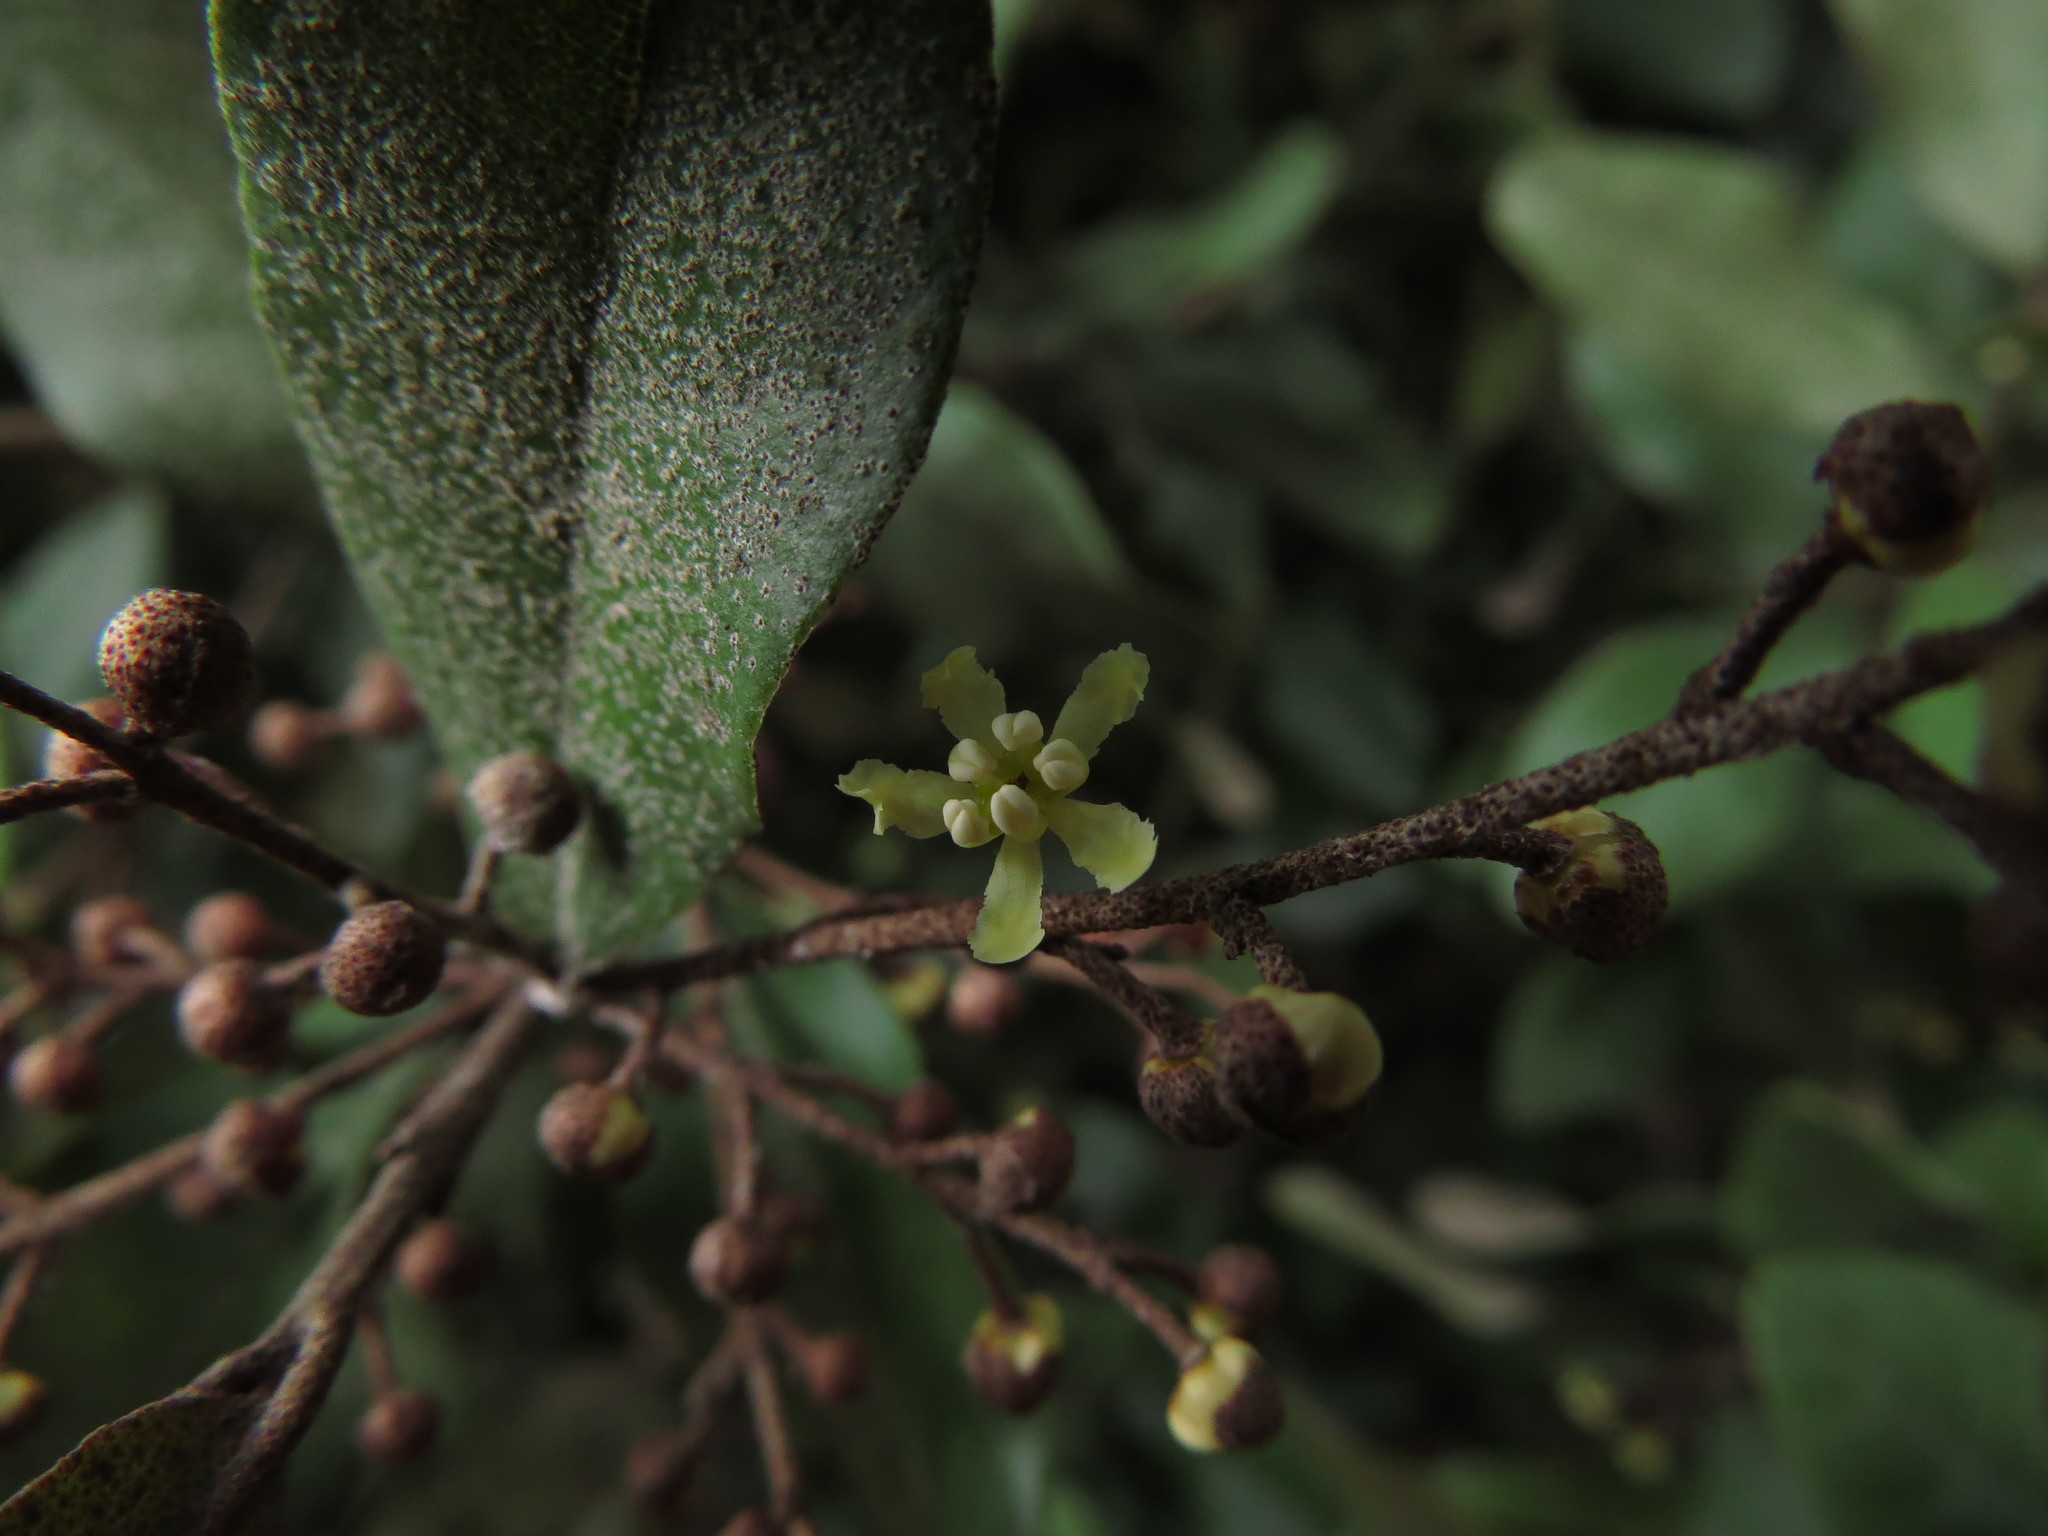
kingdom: Plantae
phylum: Tracheophyta
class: Magnoliopsida
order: Berberidopsidales
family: Aextoxicaceae
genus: Aextoxicon
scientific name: Aextoxicon punctatum
